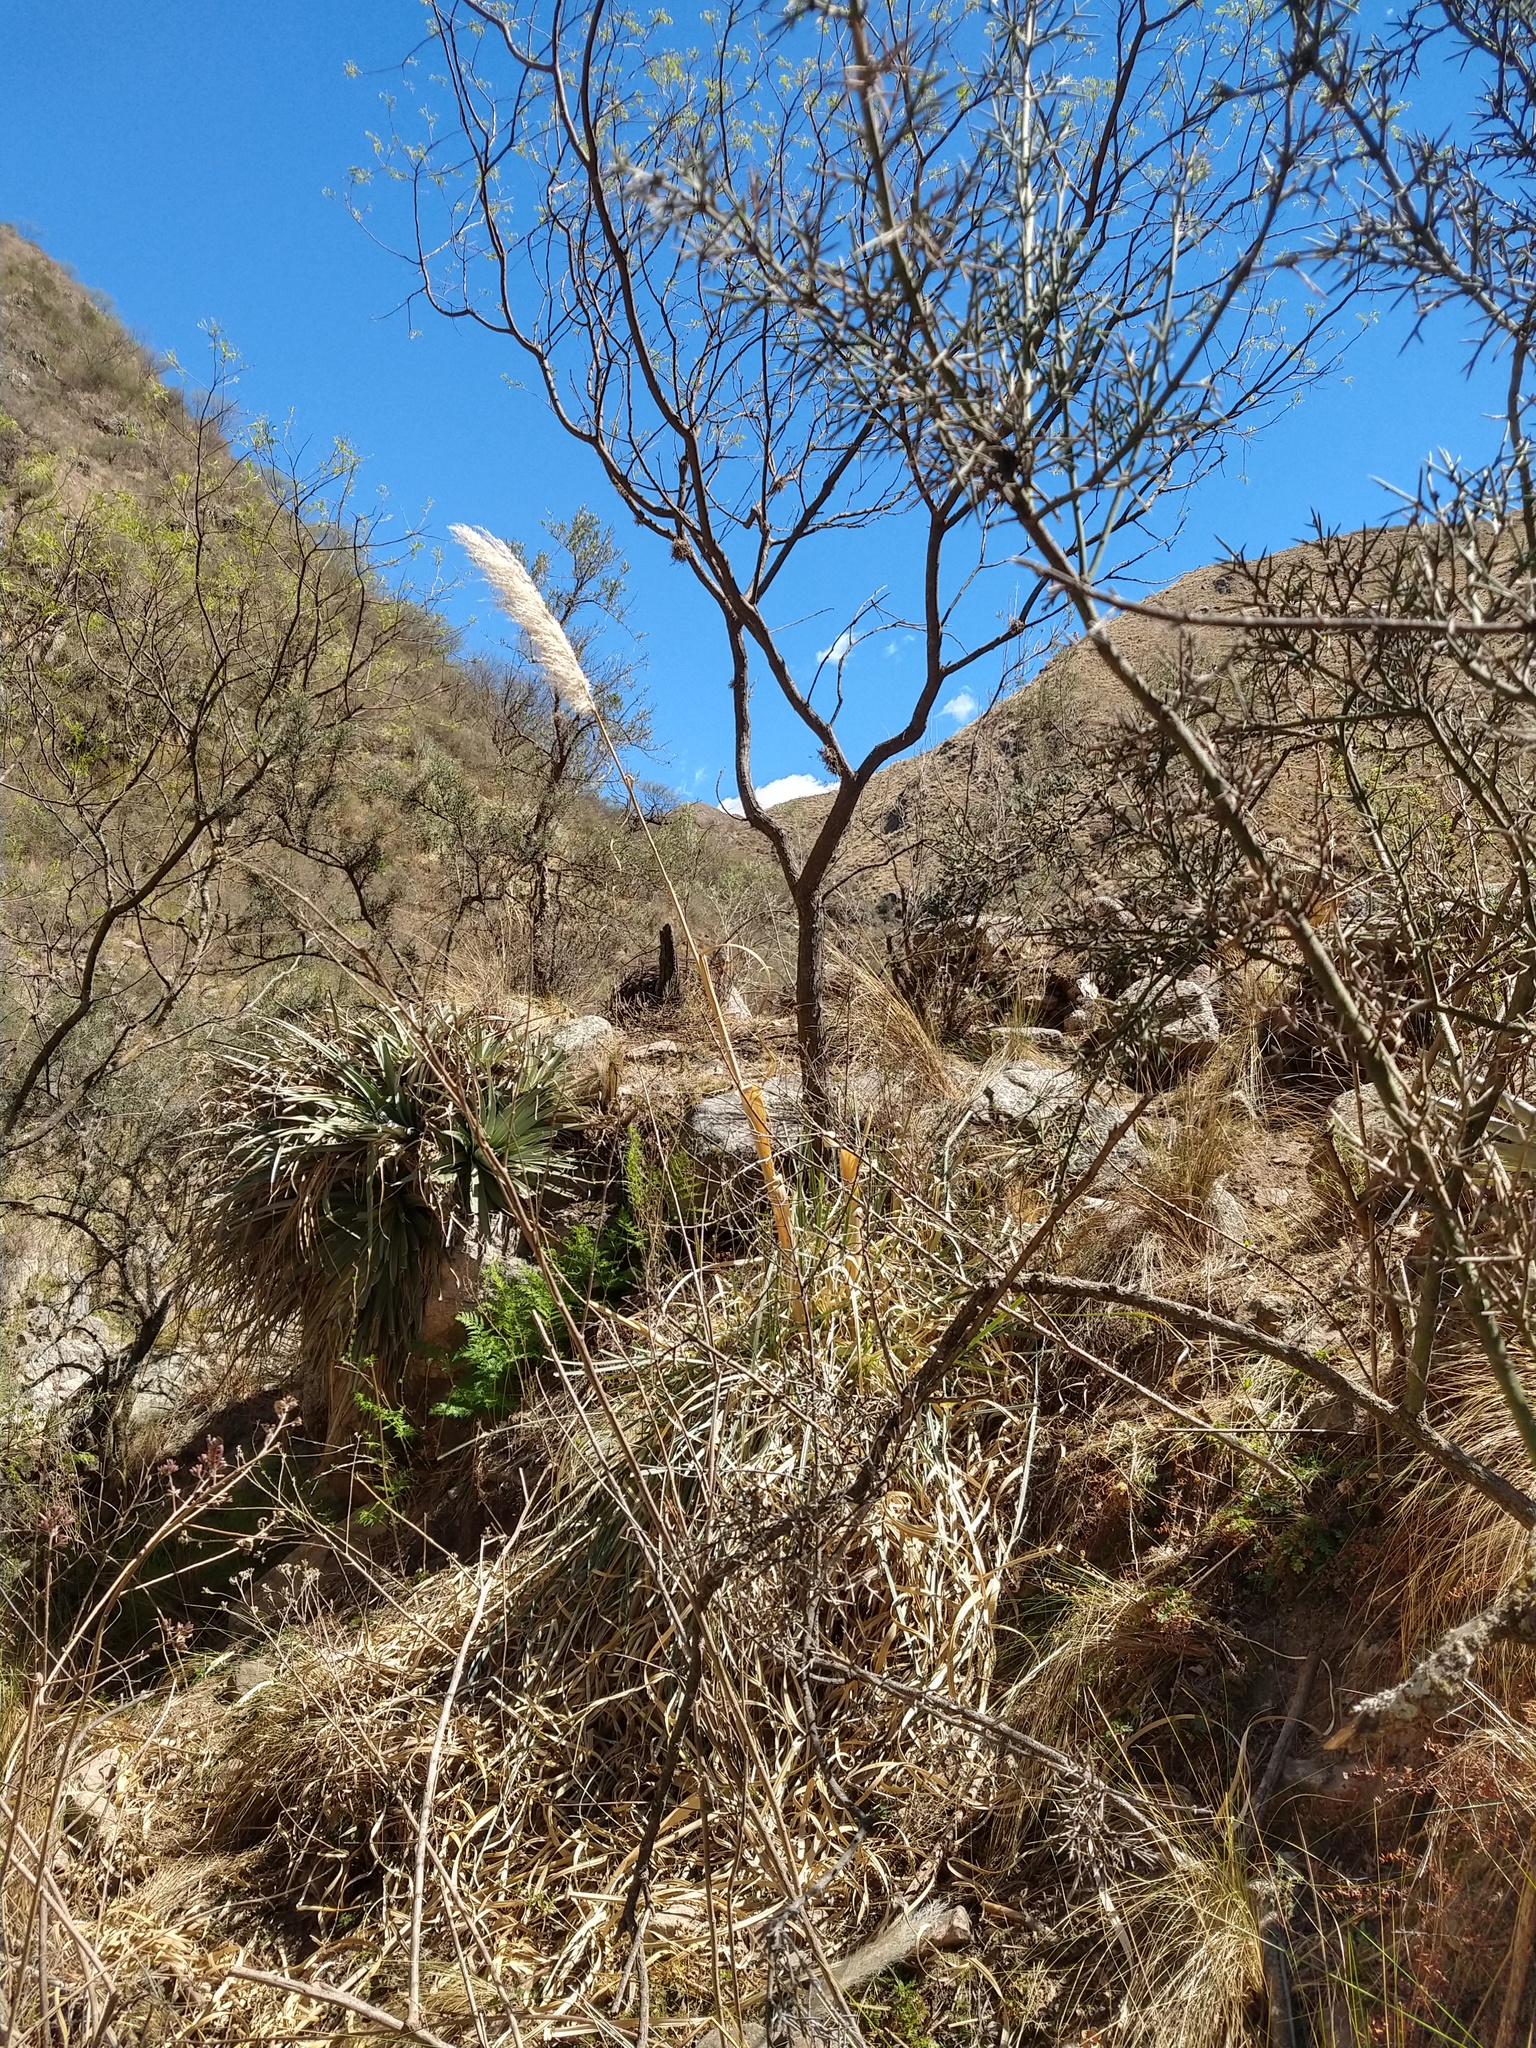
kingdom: Plantae
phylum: Tracheophyta
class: Liliopsida
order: Poales
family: Poaceae
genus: Cortaderia
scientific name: Cortaderia selloana
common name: Uruguayan pampas grass
